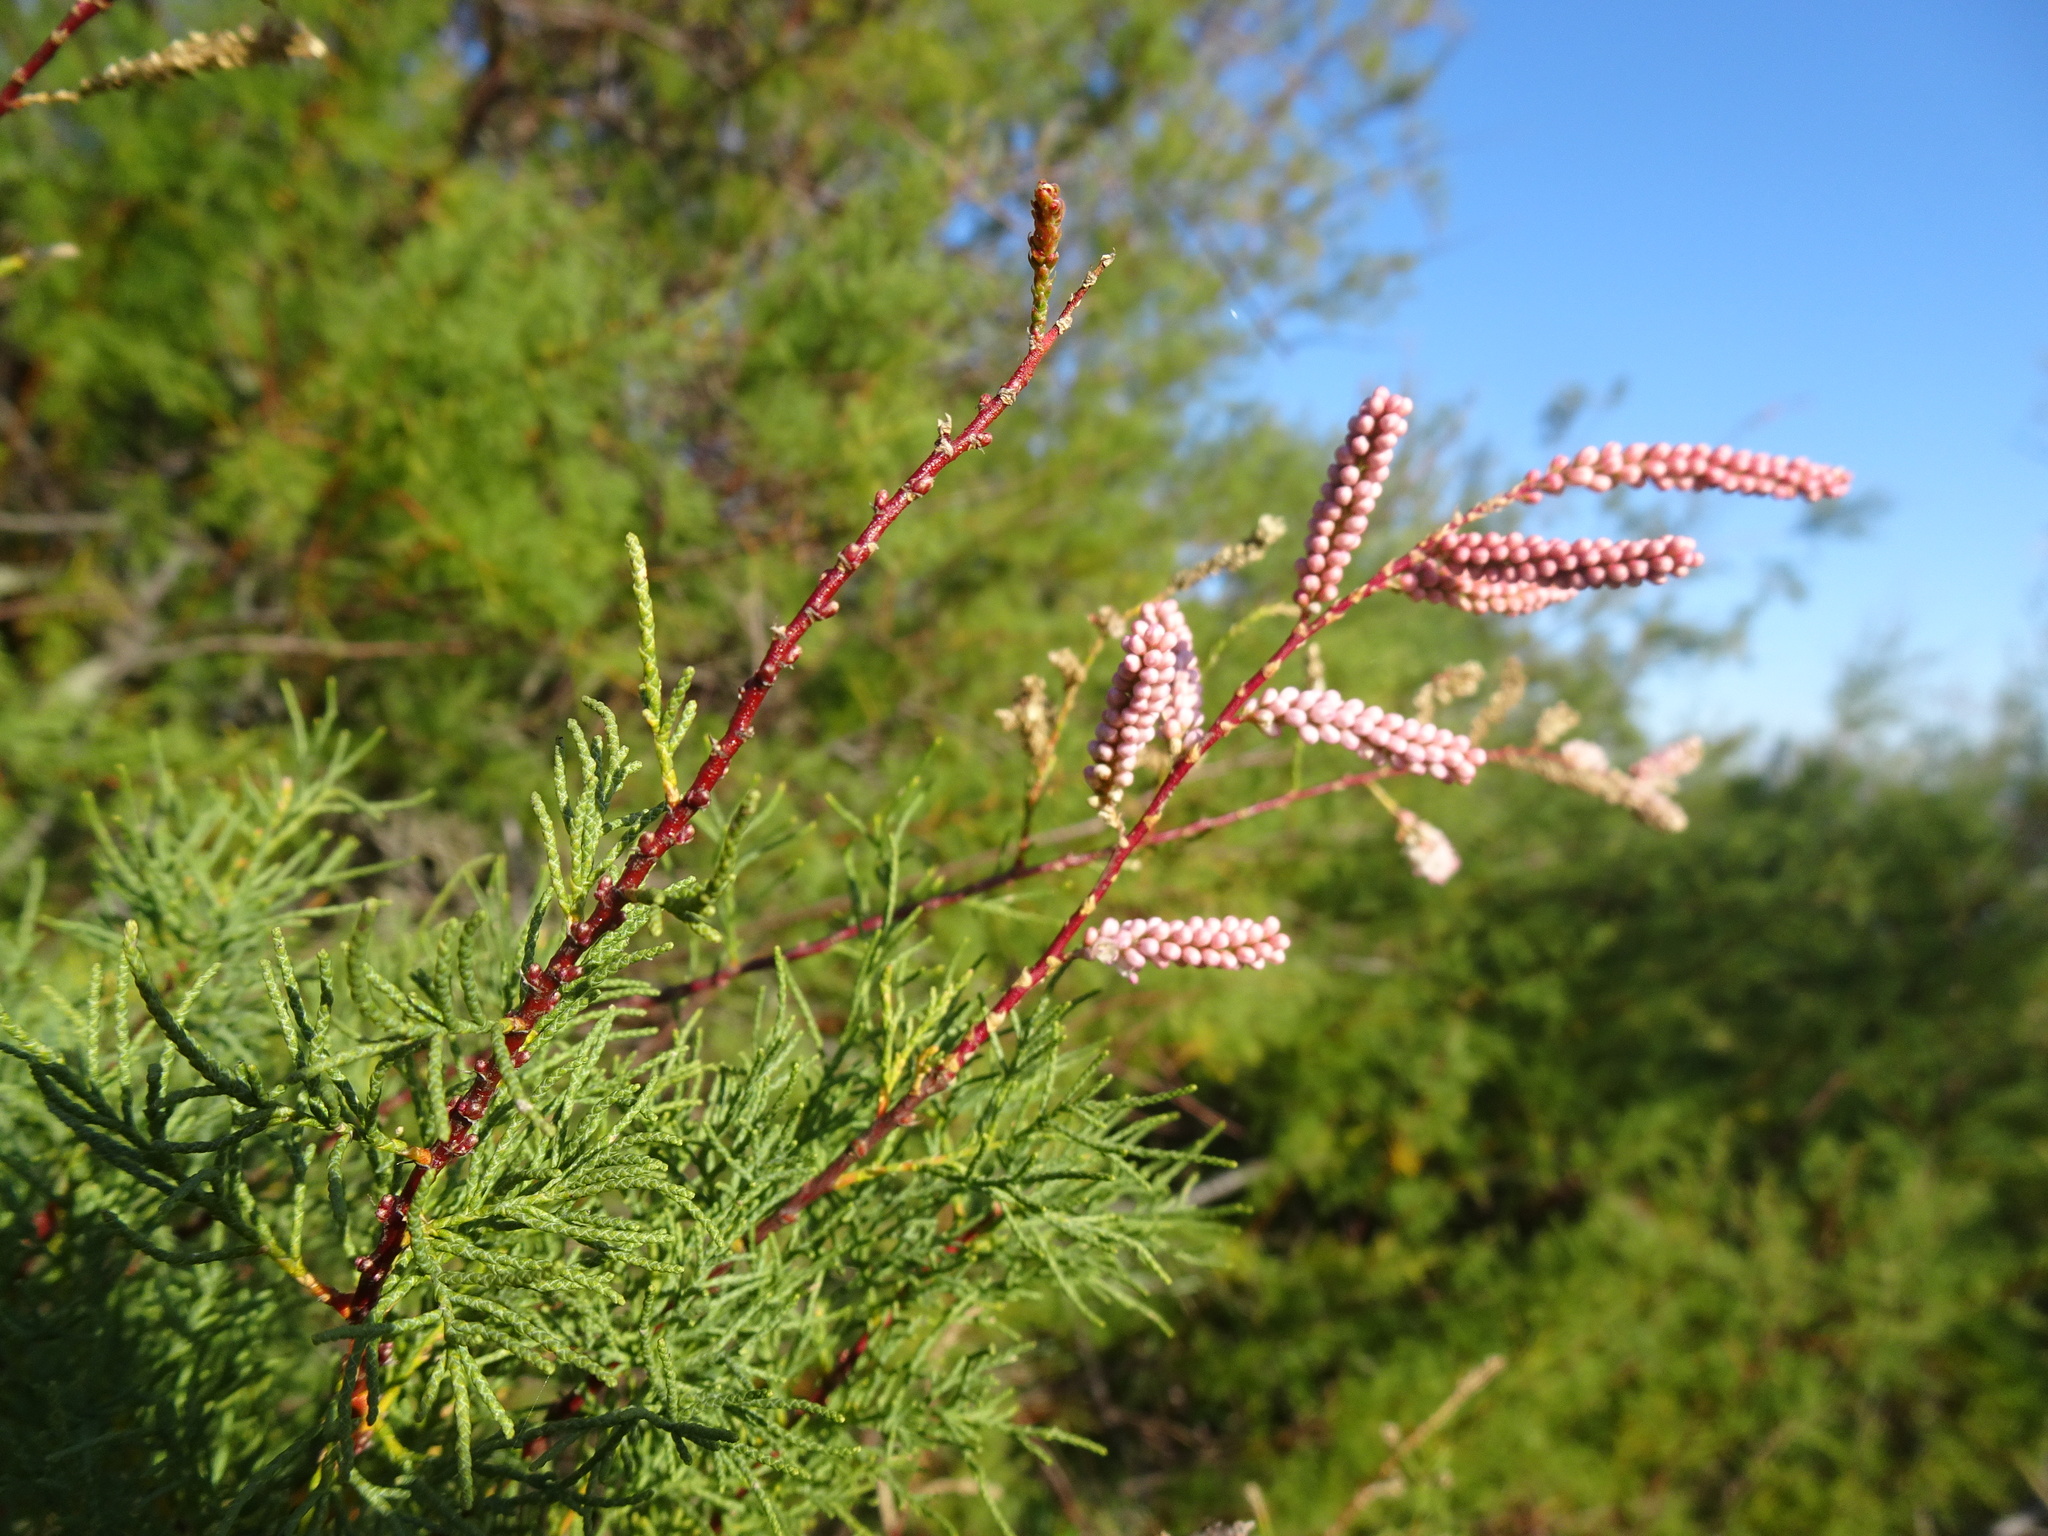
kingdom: Plantae
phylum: Tracheophyta
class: Magnoliopsida
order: Caryophyllales
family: Tamaricaceae
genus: Tamarix
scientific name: Tamarix gallica
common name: Tamarisk
